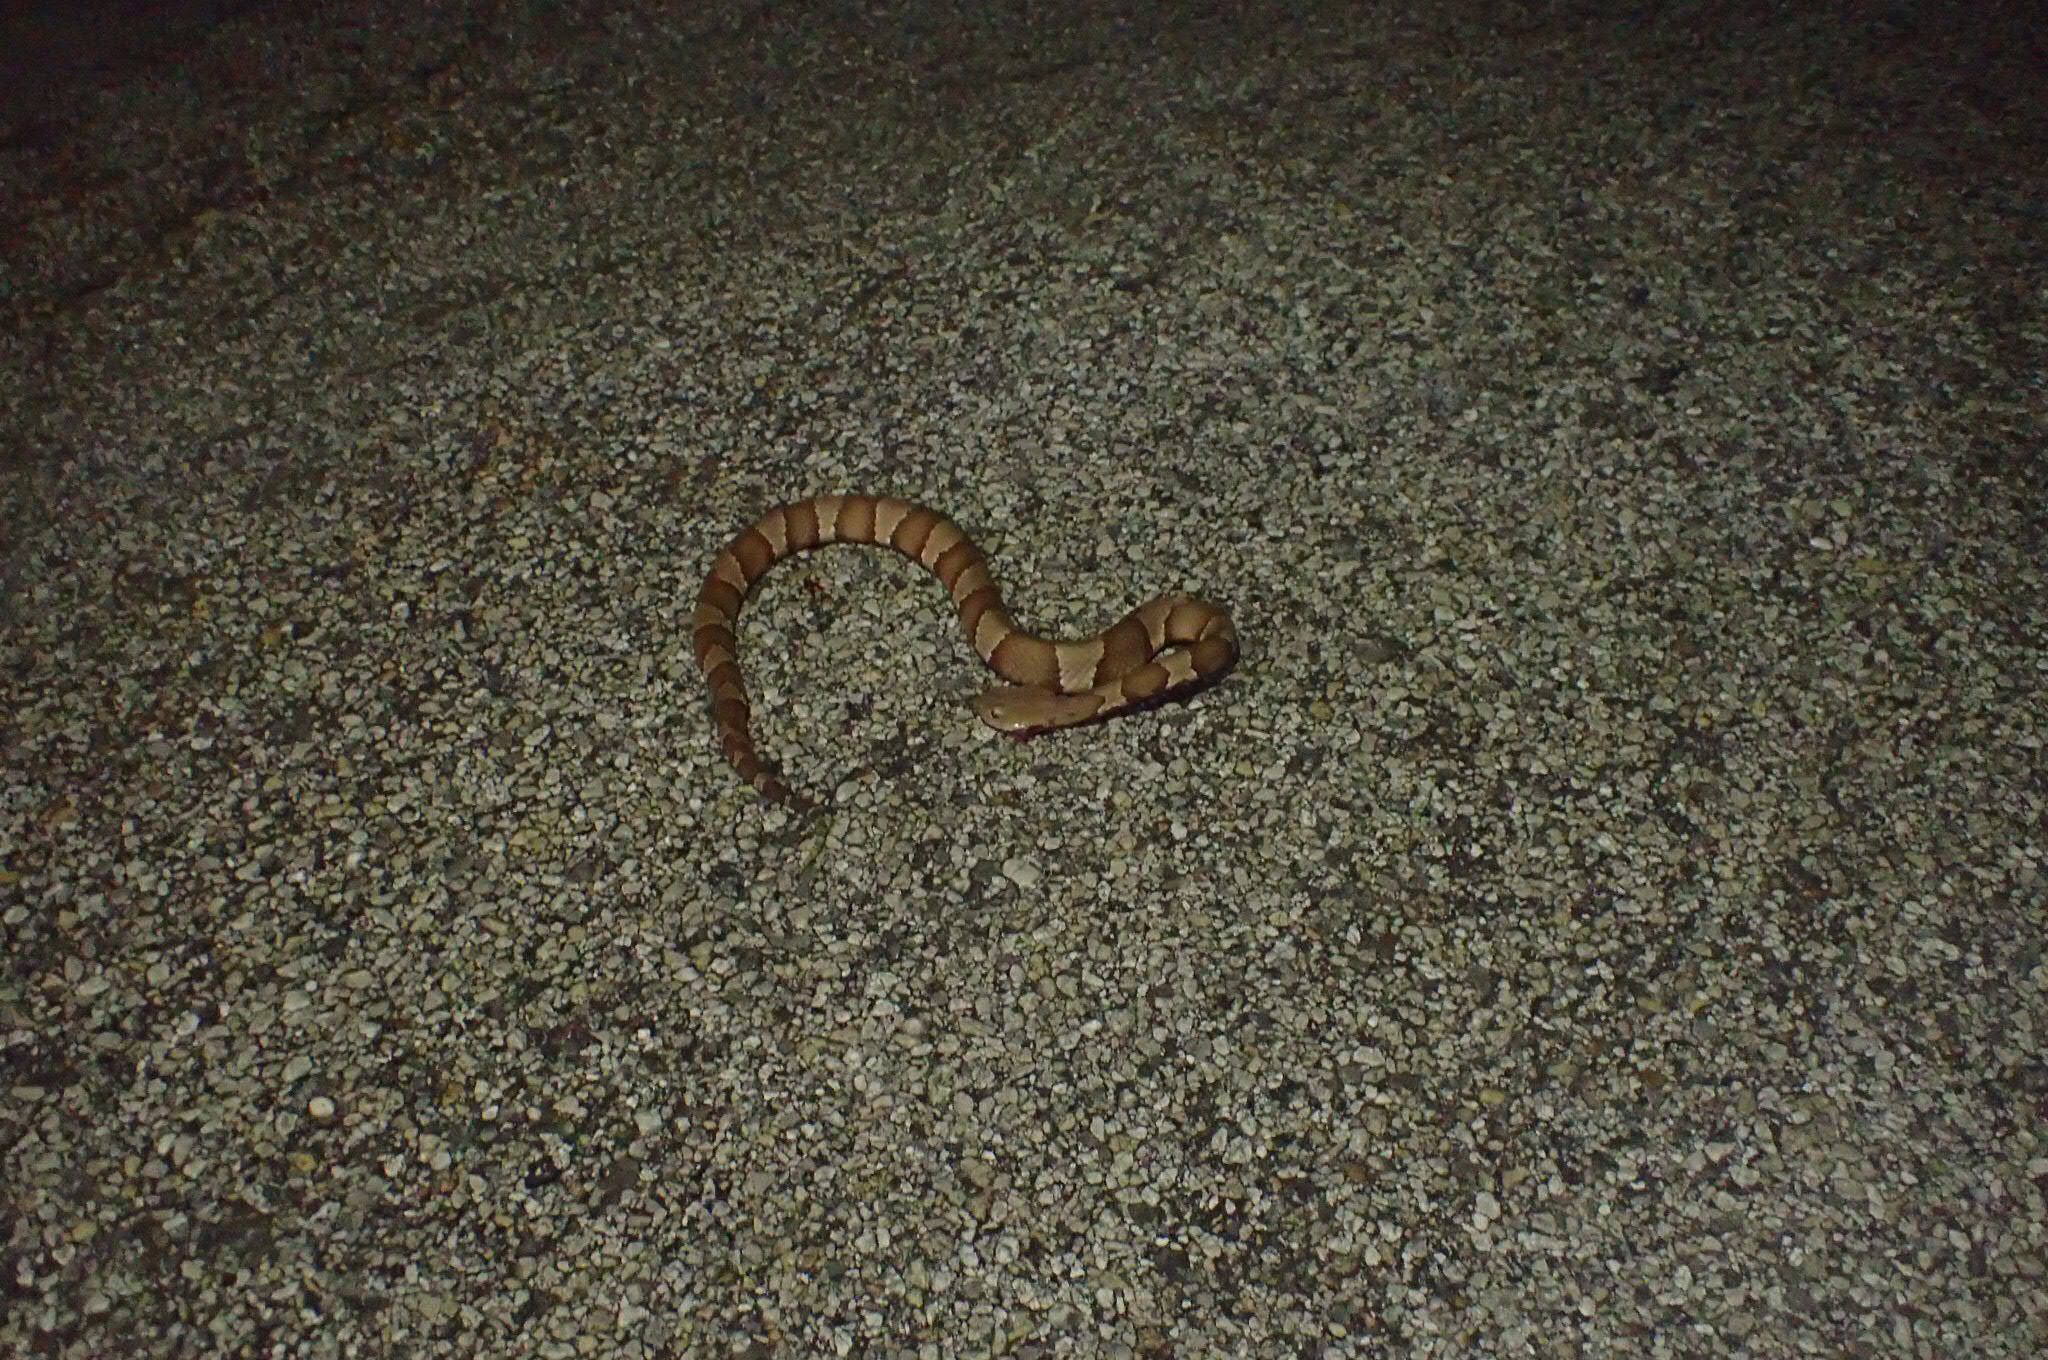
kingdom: Animalia
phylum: Chordata
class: Squamata
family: Viperidae
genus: Agkistrodon
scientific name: Agkistrodon laticinctus
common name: Broad-banded copperhead
